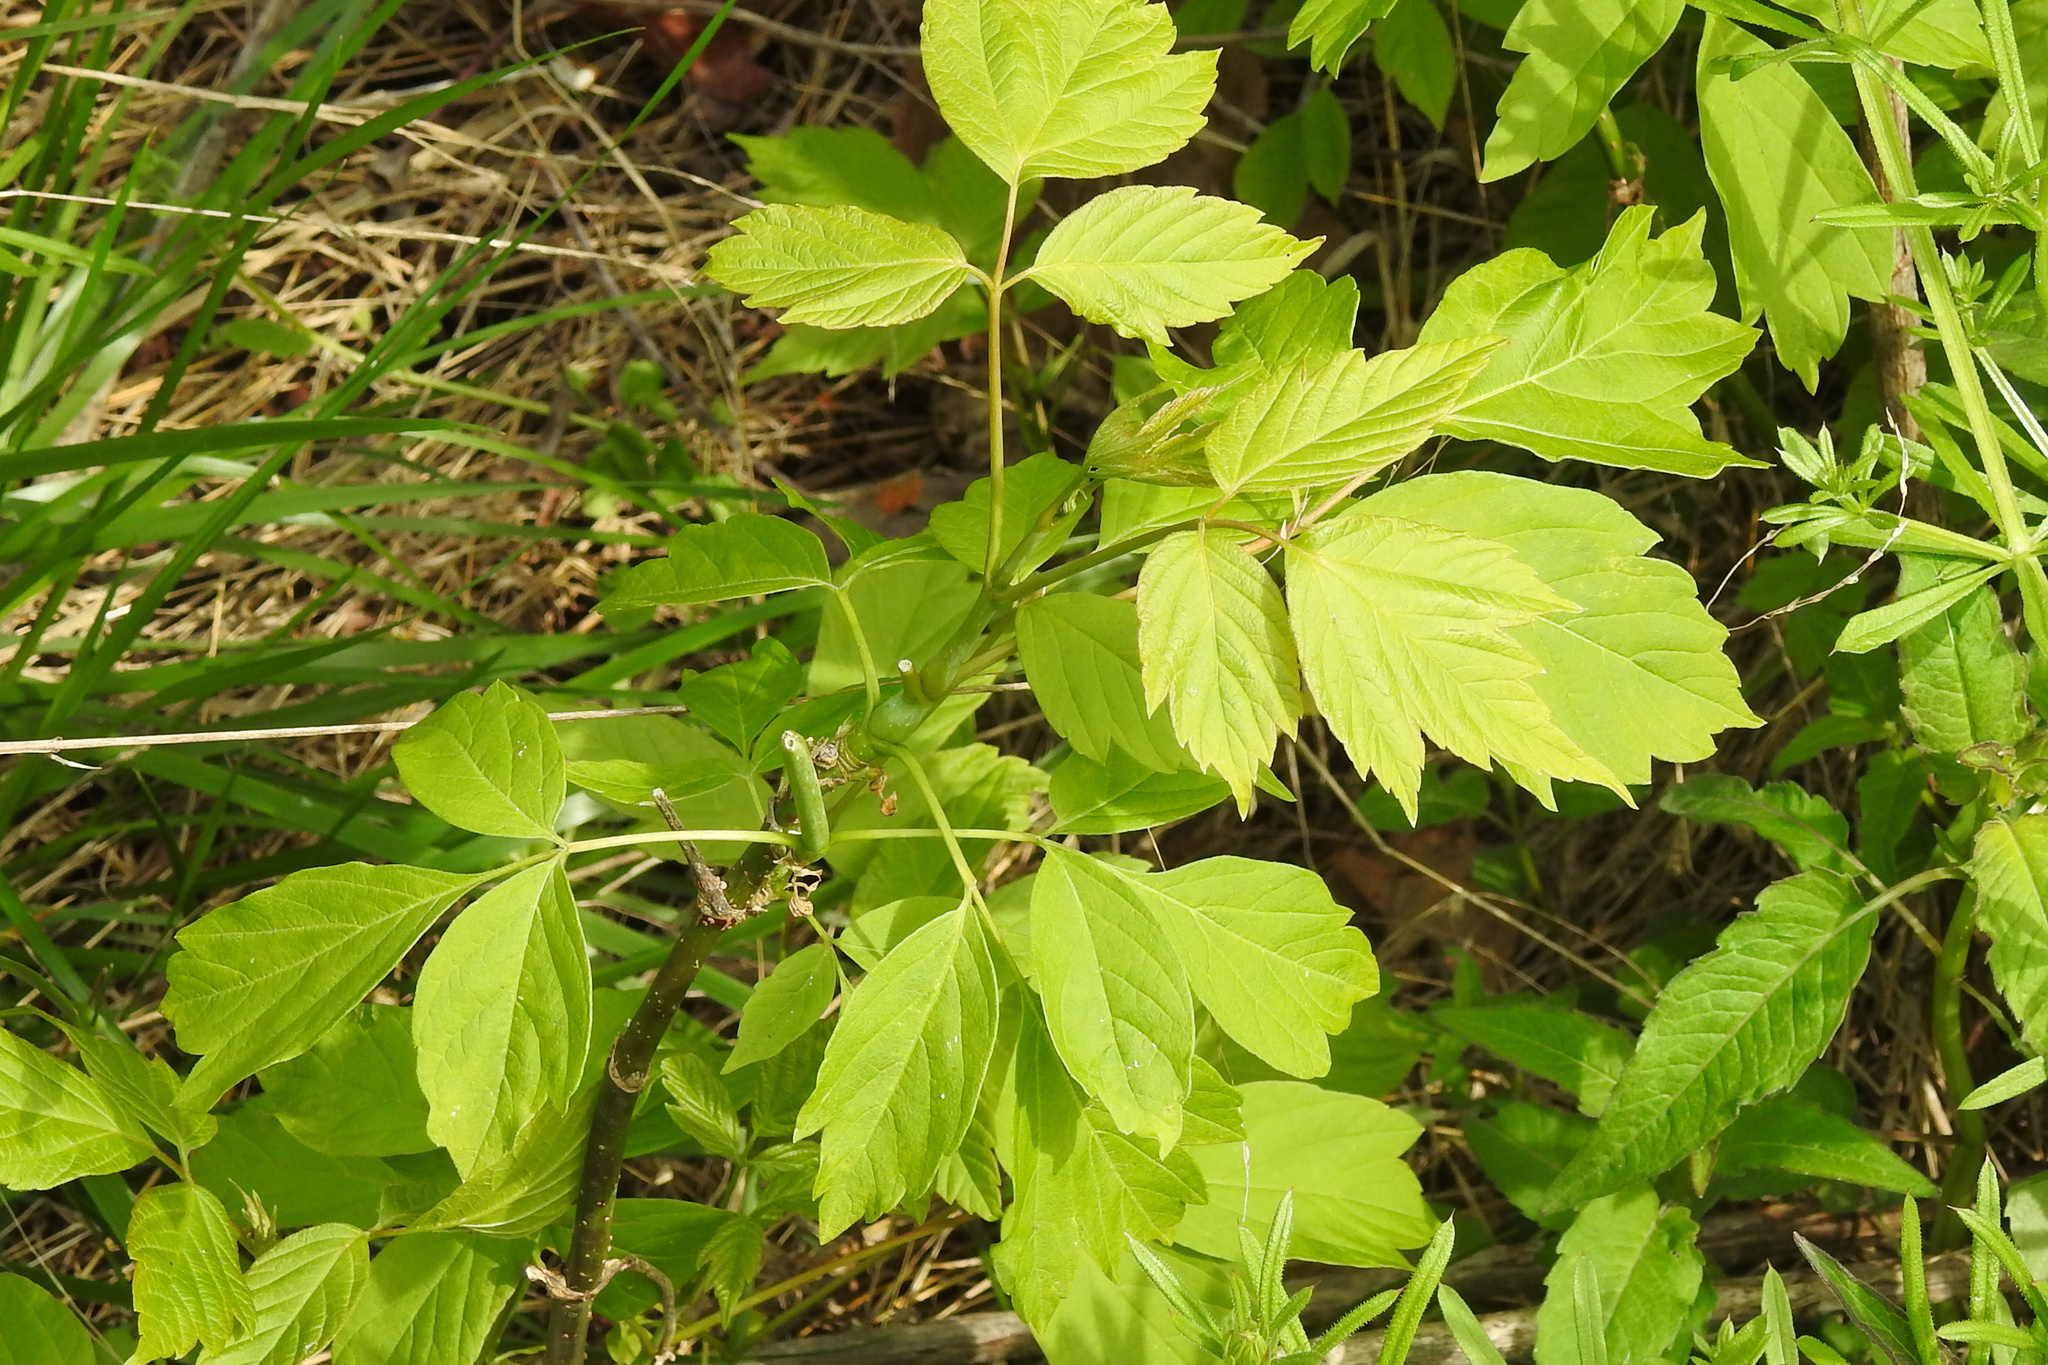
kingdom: Plantae
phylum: Tracheophyta
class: Magnoliopsida
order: Sapindales
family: Sapindaceae
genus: Acer
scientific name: Acer negundo
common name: Ashleaf maple
